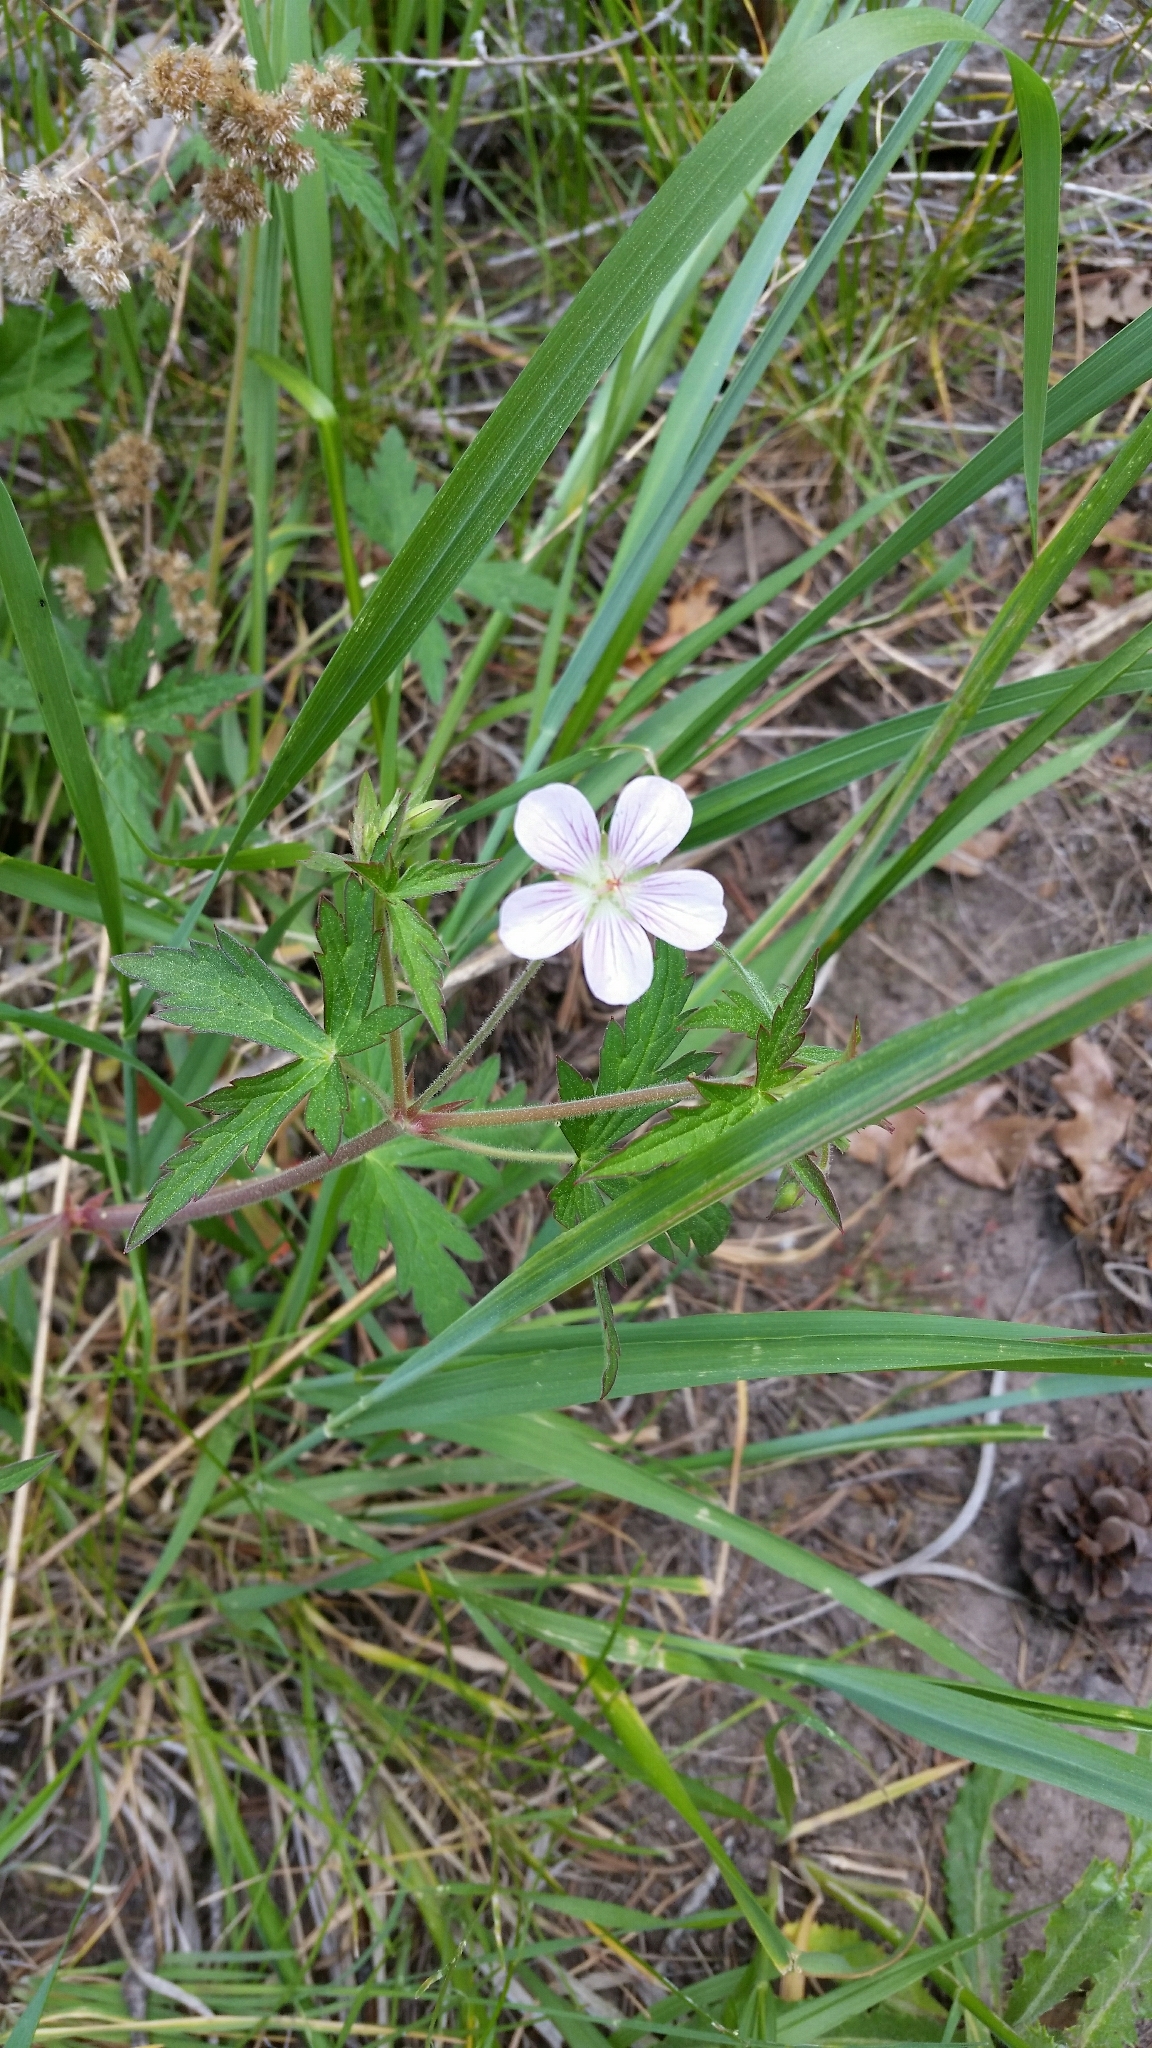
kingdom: Plantae
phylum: Tracheophyta
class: Magnoliopsida
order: Geraniales
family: Geraniaceae
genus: Geranium
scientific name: Geranium richardsonii
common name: Richardson's crane's-bill
